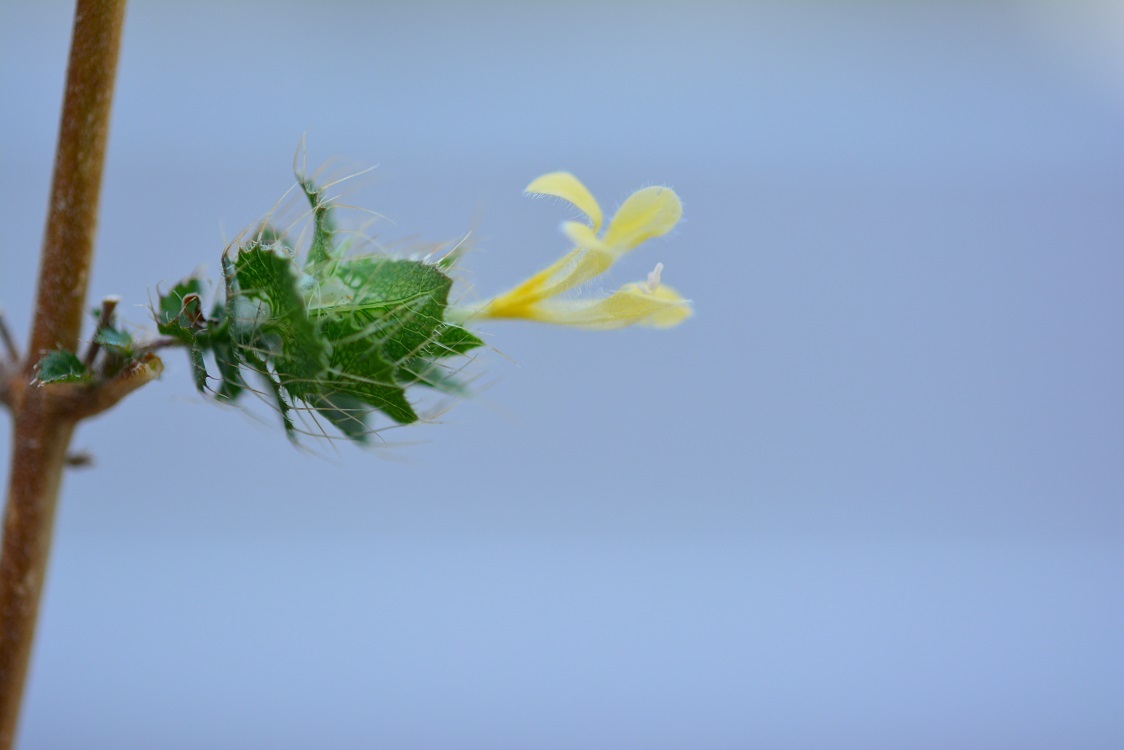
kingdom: Plantae
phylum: Tracheophyta
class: Magnoliopsida
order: Ericales
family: Polemoniaceae
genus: Loeselia
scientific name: Loeselia ciliata
